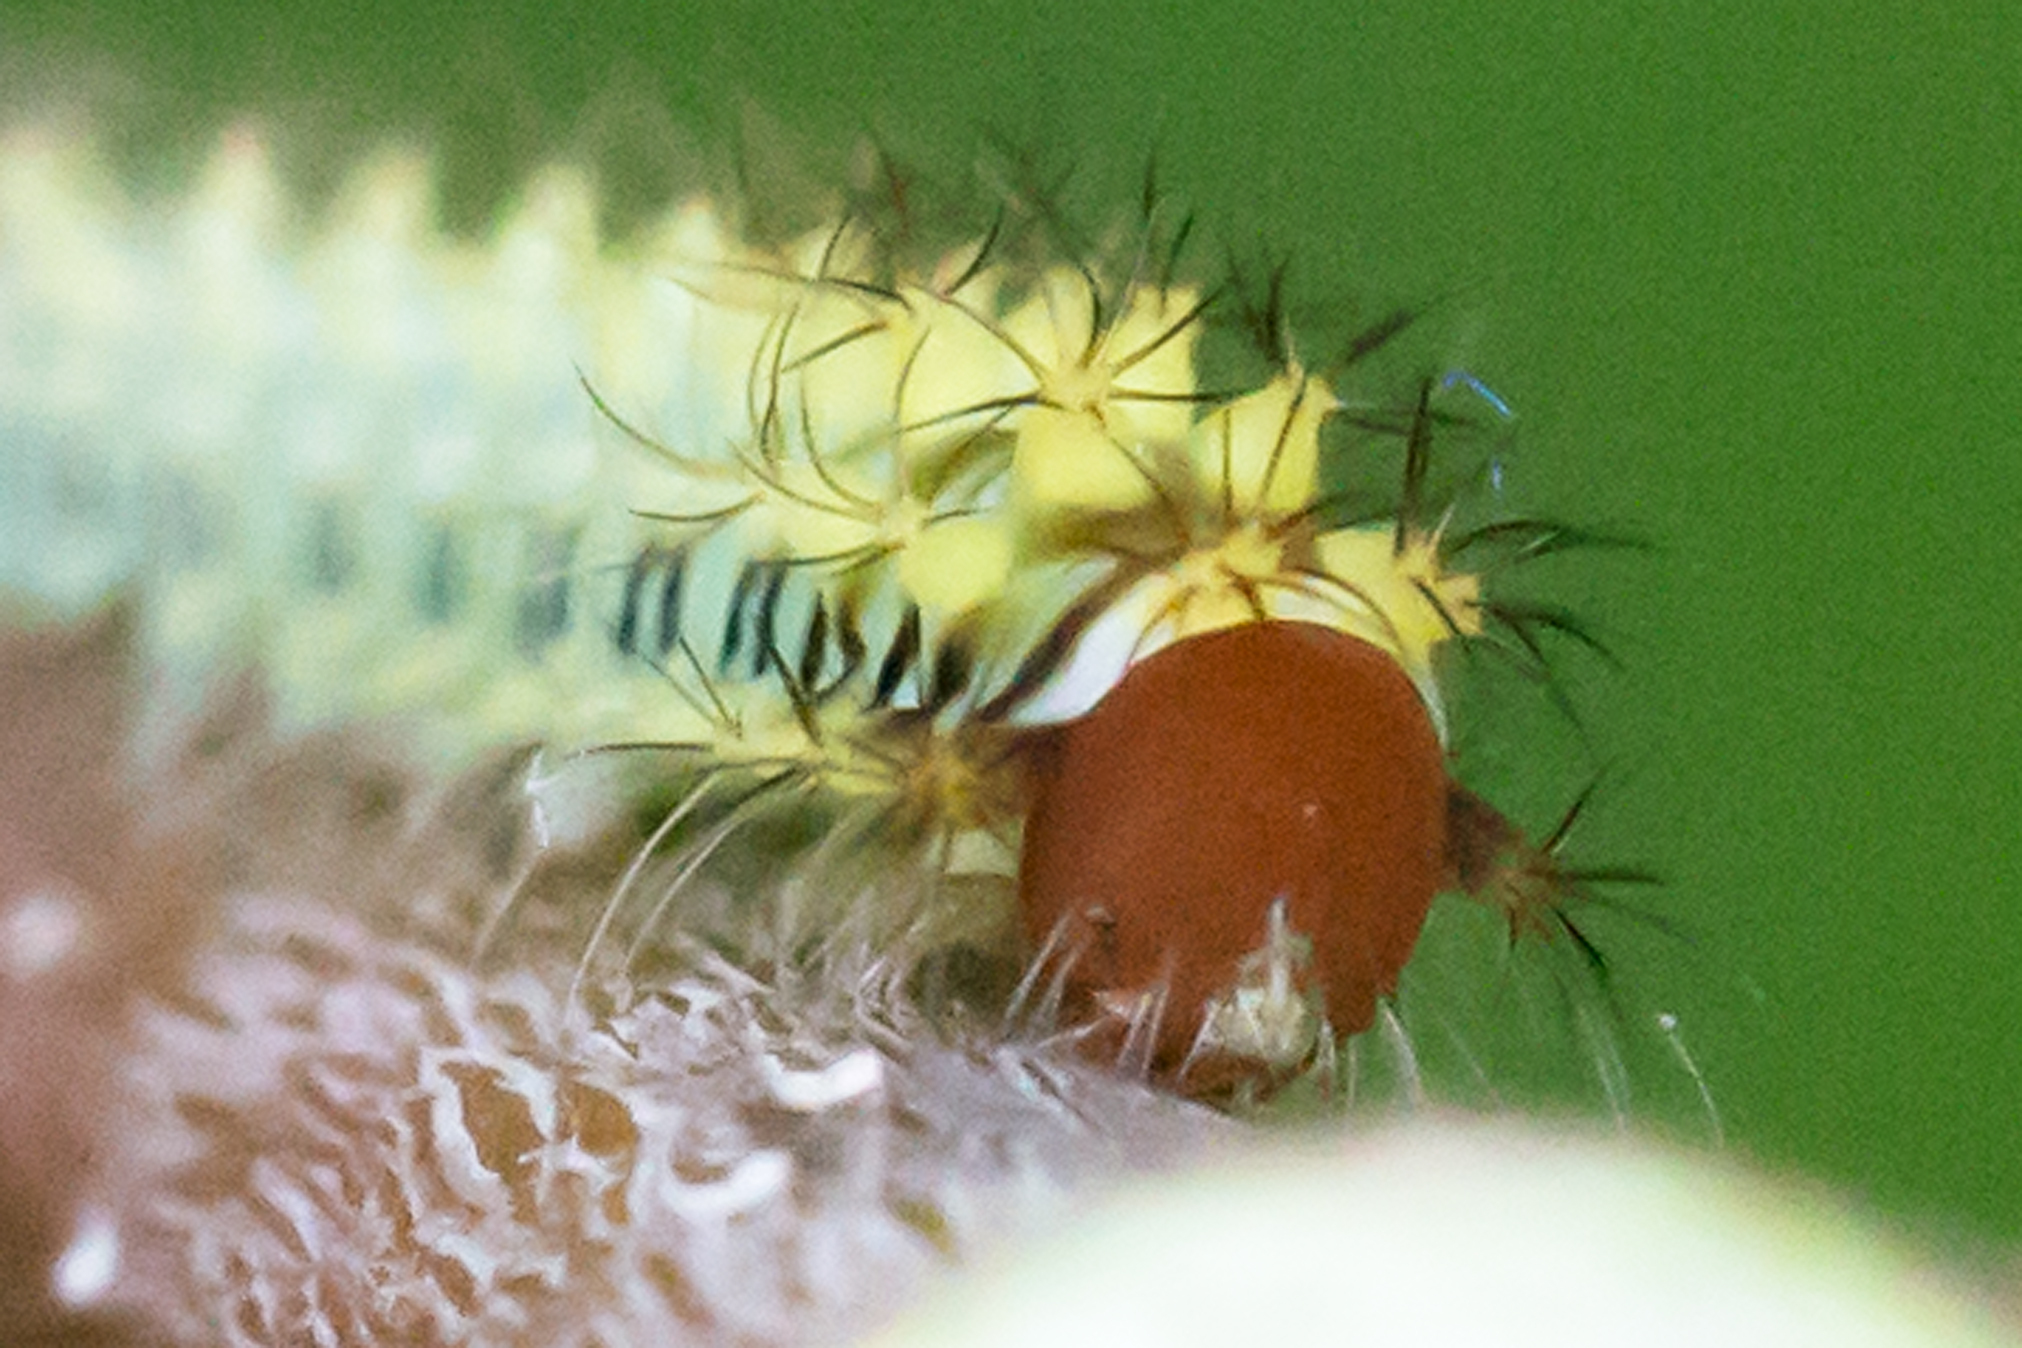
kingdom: Animalia
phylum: Arthropoda
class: Insecta
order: Lepidoptera
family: Saturniidae
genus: Antheraea
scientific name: Antheraea polyphemus
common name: Polyphemus moth
